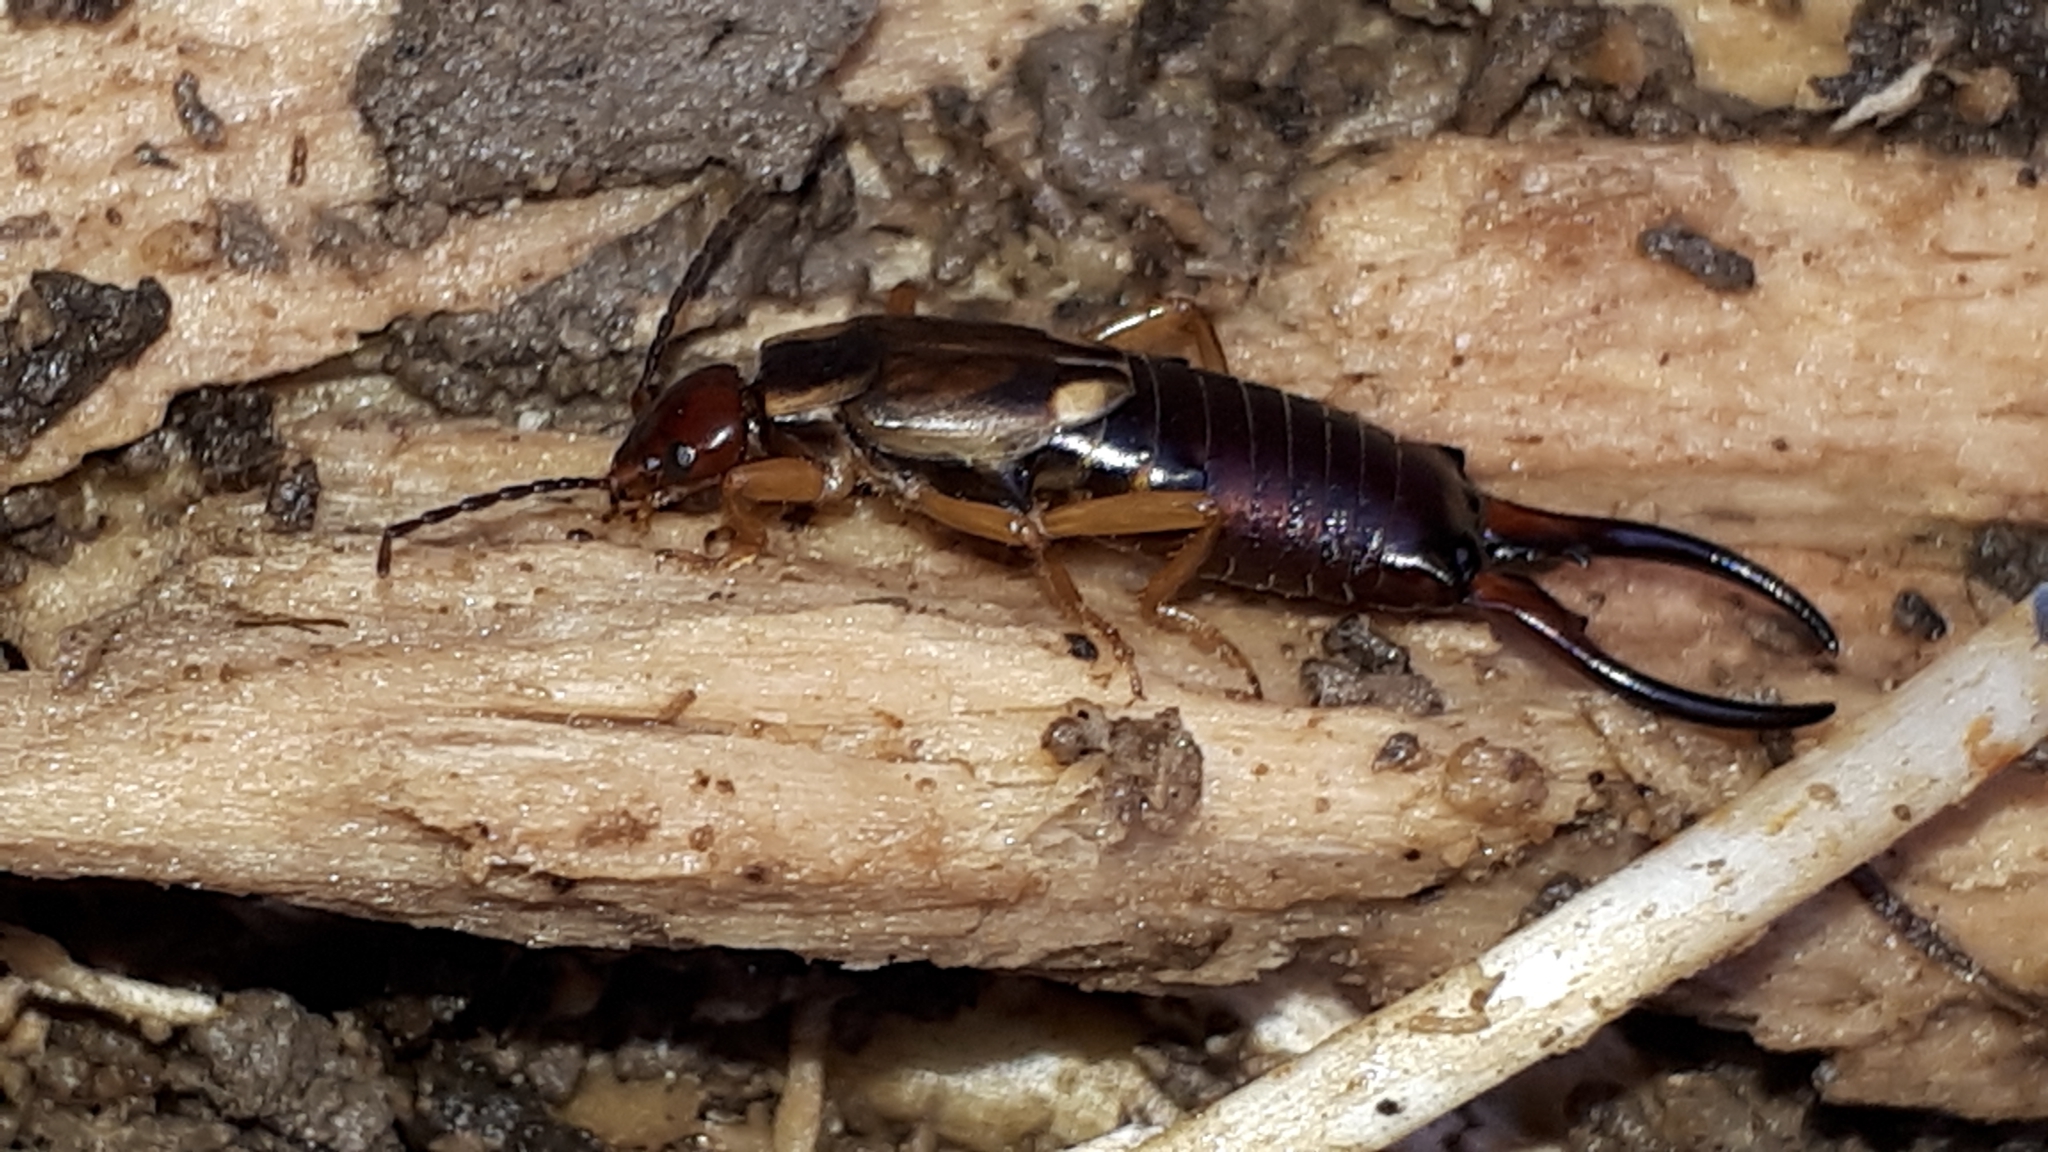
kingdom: Animalia
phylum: Arthropoda
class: Insecta
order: Dermaptera
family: Forficulidae
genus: Forficula
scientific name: Forficula
